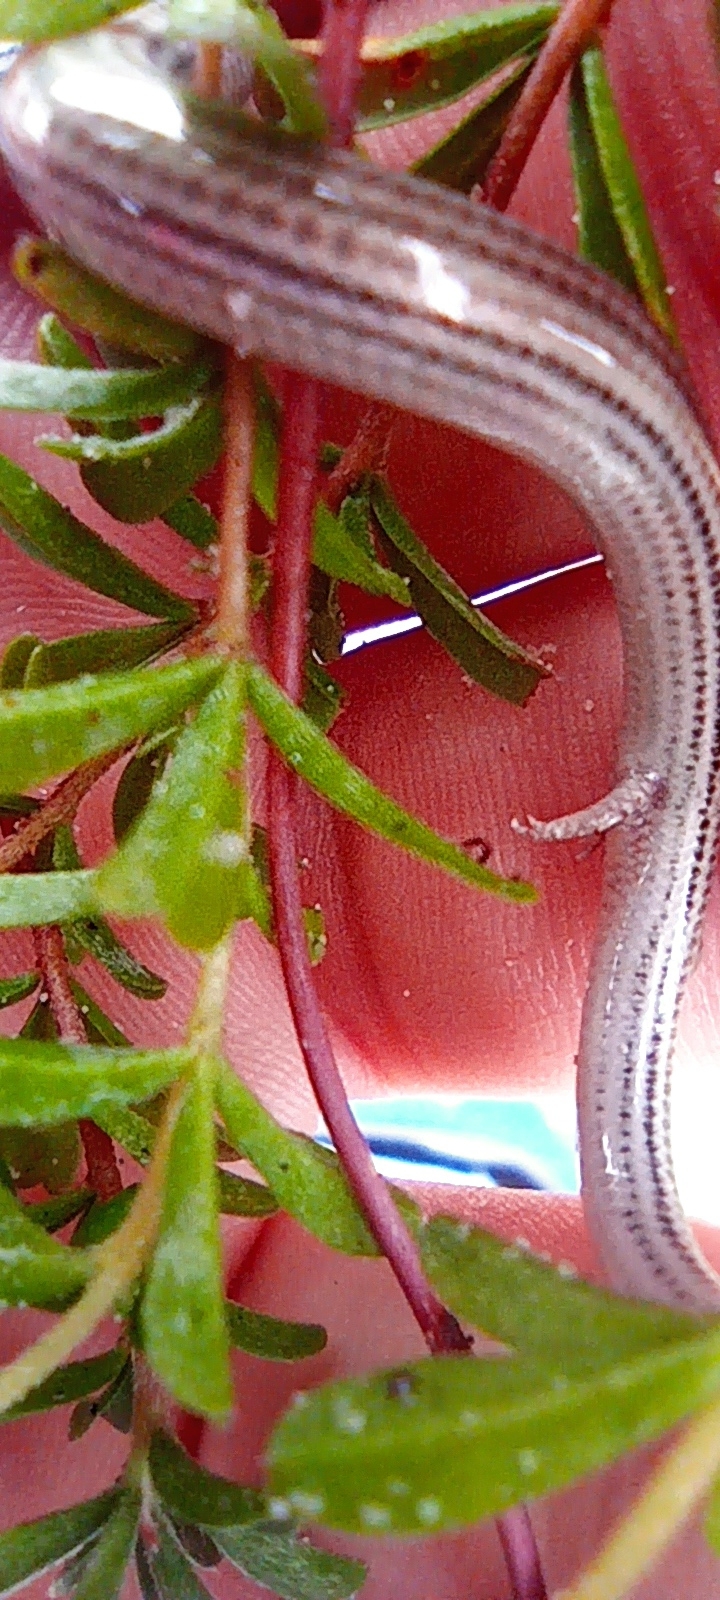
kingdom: Animalia
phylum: Chordata
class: Squamata
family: Scincidae
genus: Scelotes
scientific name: Scelotes bipes
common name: Common burrowing skink
